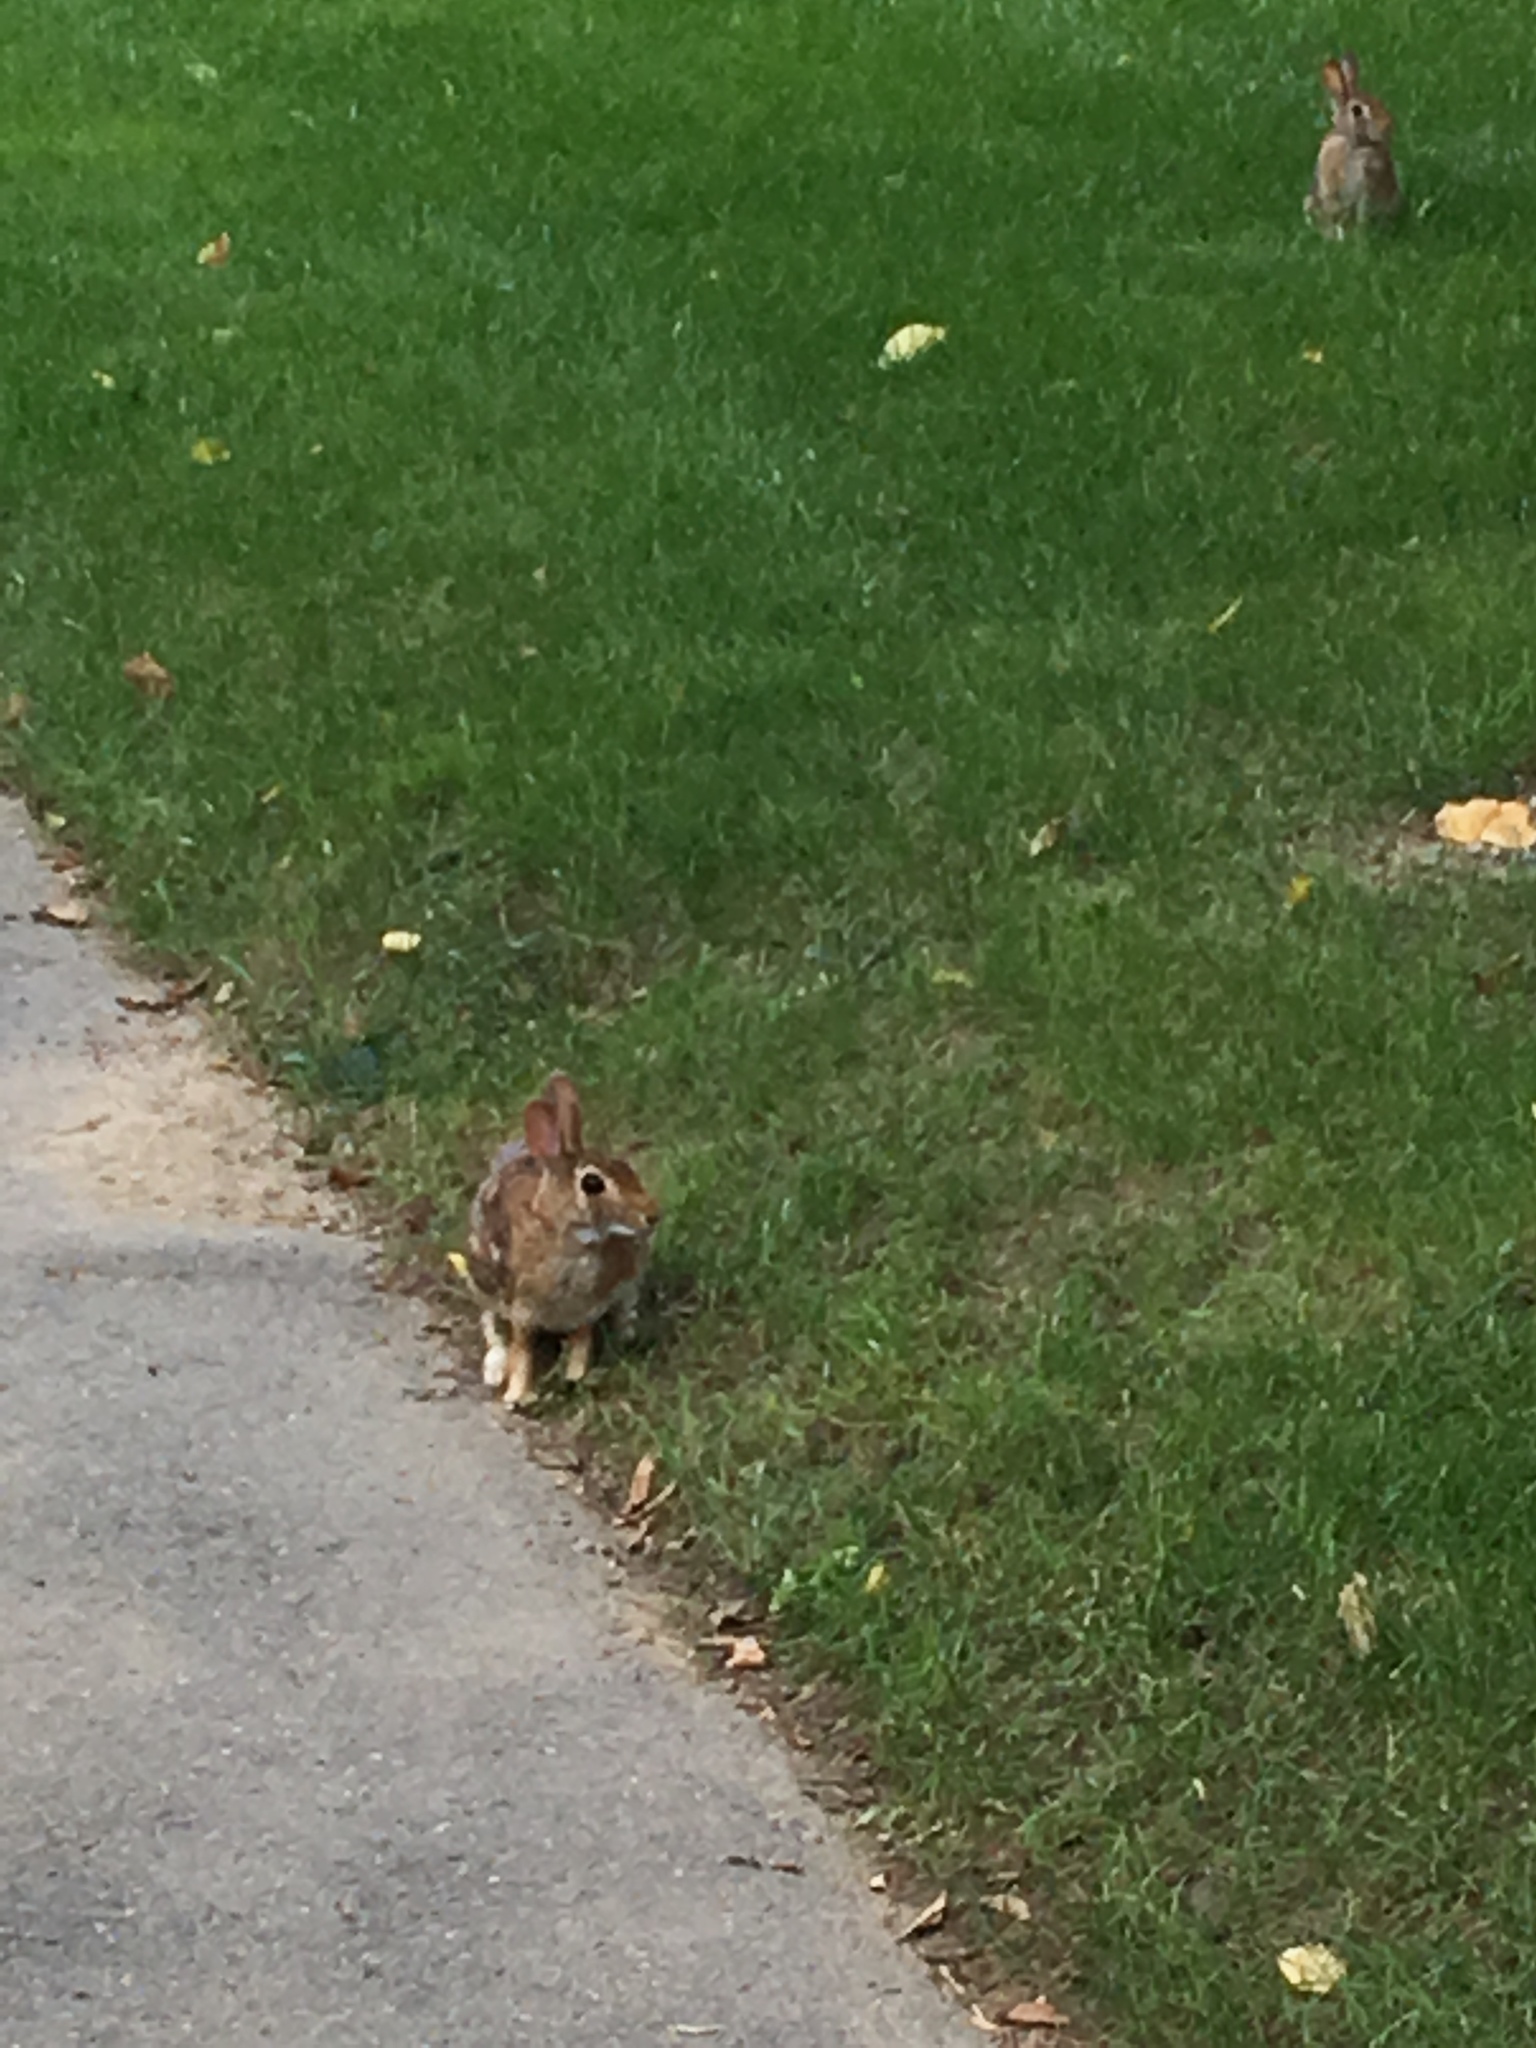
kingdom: Animalia
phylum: Chordata
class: Mammalia
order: Lagomorpha
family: Leporidae
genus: Sylvilagus
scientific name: Sylvilagus floridanus
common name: Eastern cottontail
